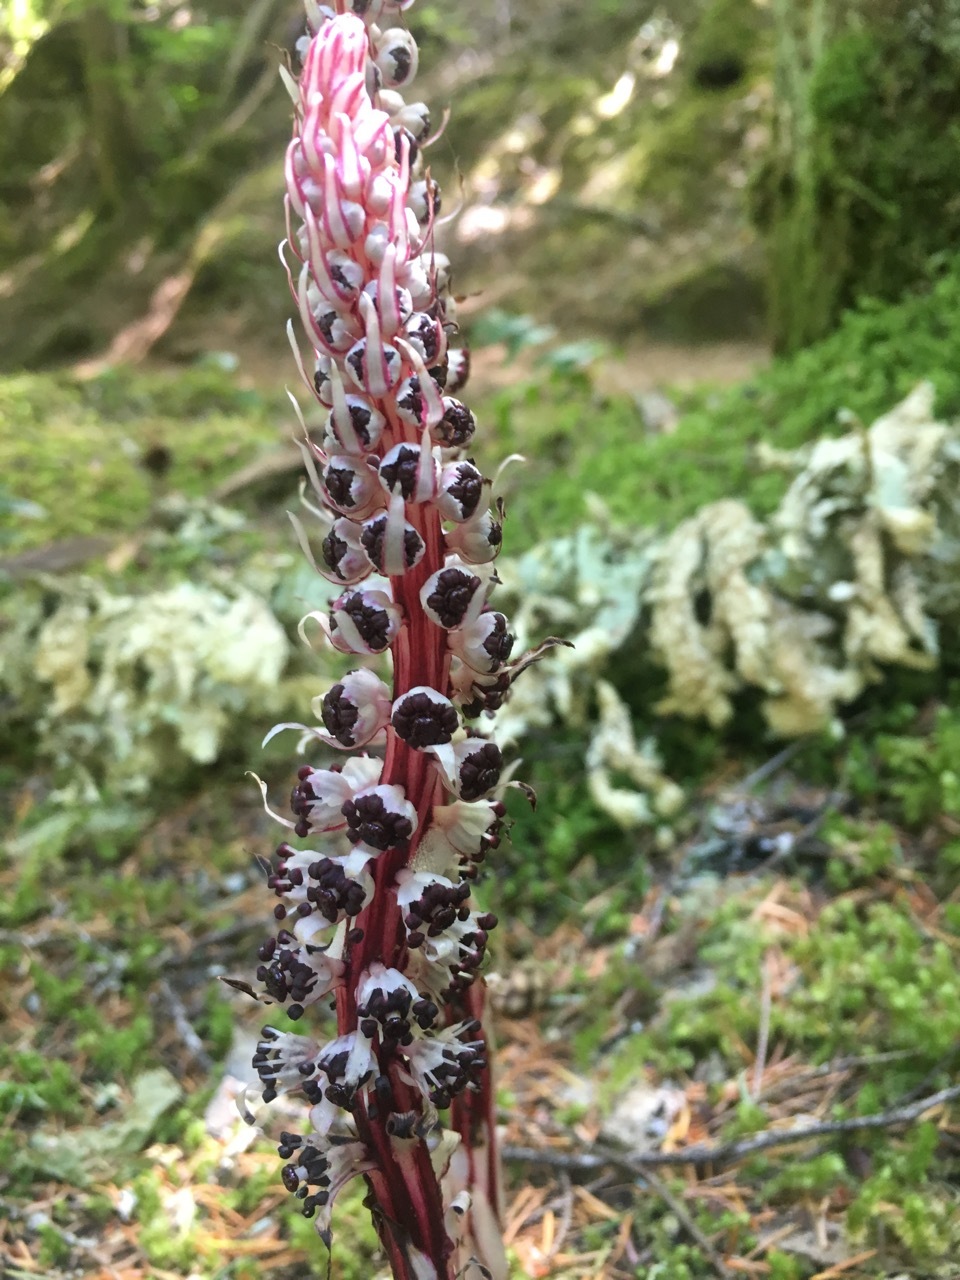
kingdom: Plantae
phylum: Tracheophyta
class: Magnoliopsida
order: Ericales
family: Ericaceae
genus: Allotropa
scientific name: Allotropa virgata
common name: Candy-striped allotropa
